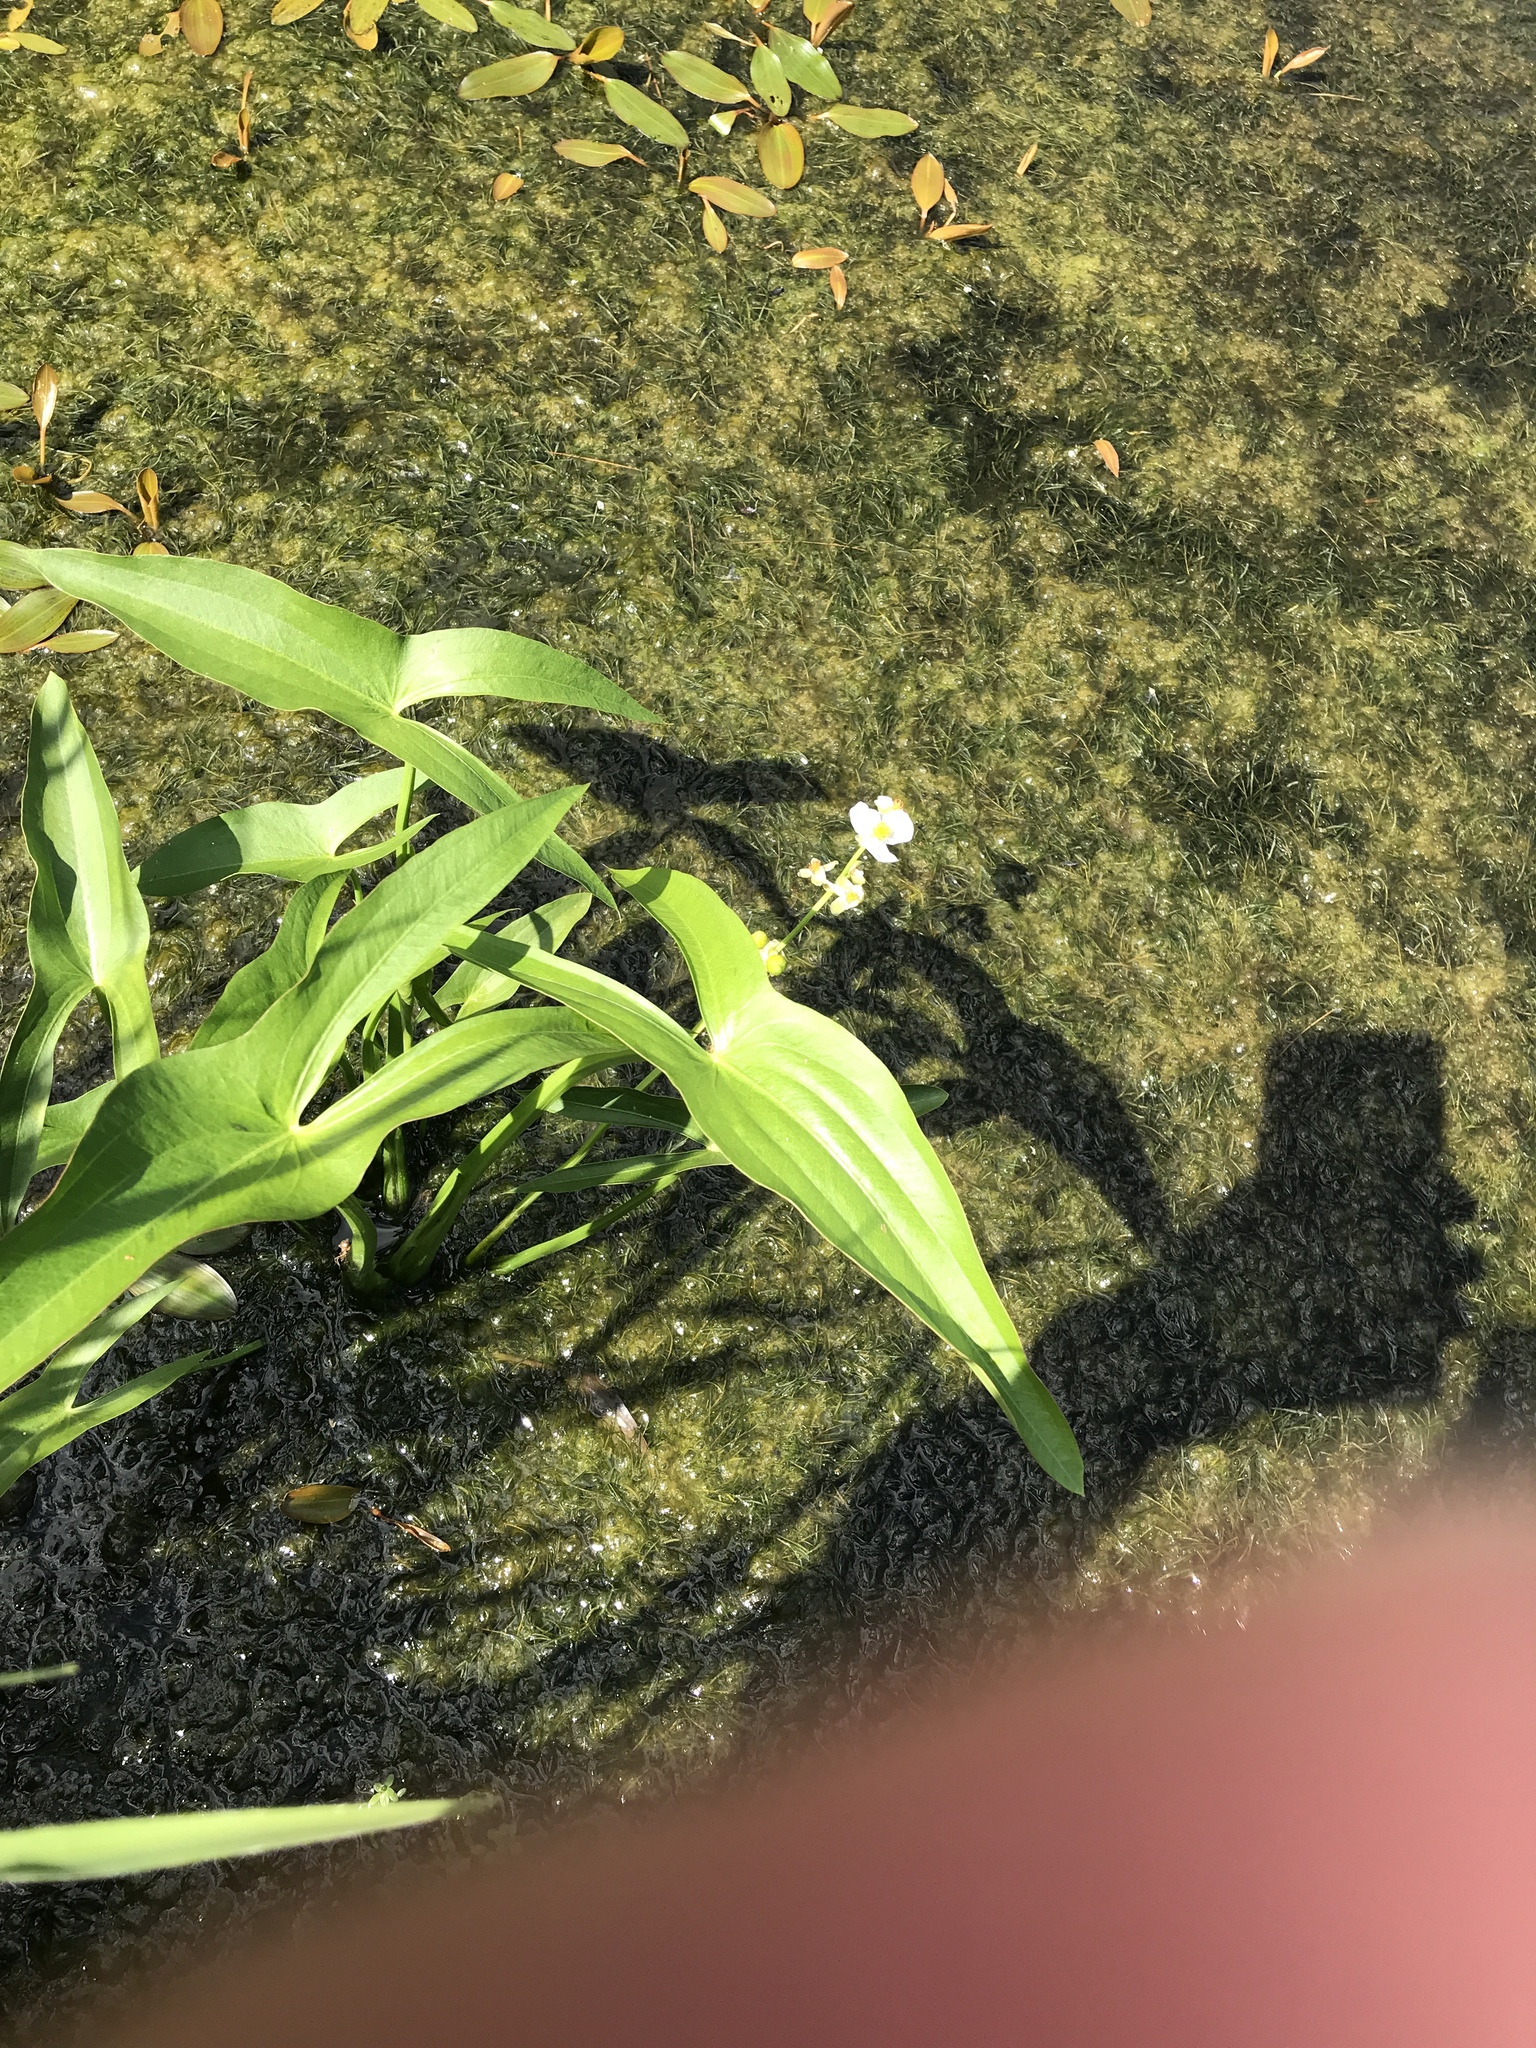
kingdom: Plantae
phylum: Tracheophyta
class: Liliopsida
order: Alismatales
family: Alismataceae
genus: Sagittaria
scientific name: Sagittaria latifolia
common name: Duck-potato
